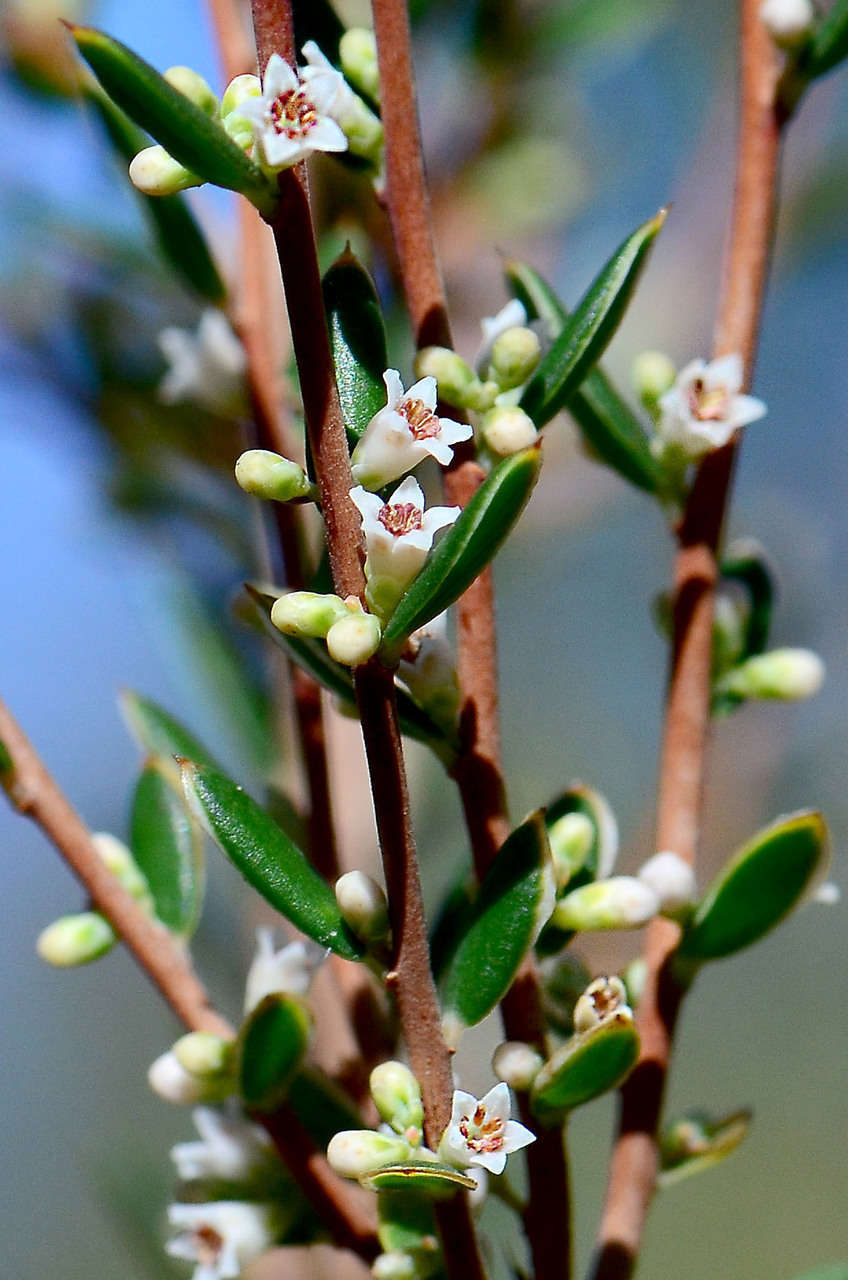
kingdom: Plantae
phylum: Tracheophyta
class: Magnoliopsida
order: Ericales
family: Ericaceae
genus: Monotoca
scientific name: Monotoca scoparia
